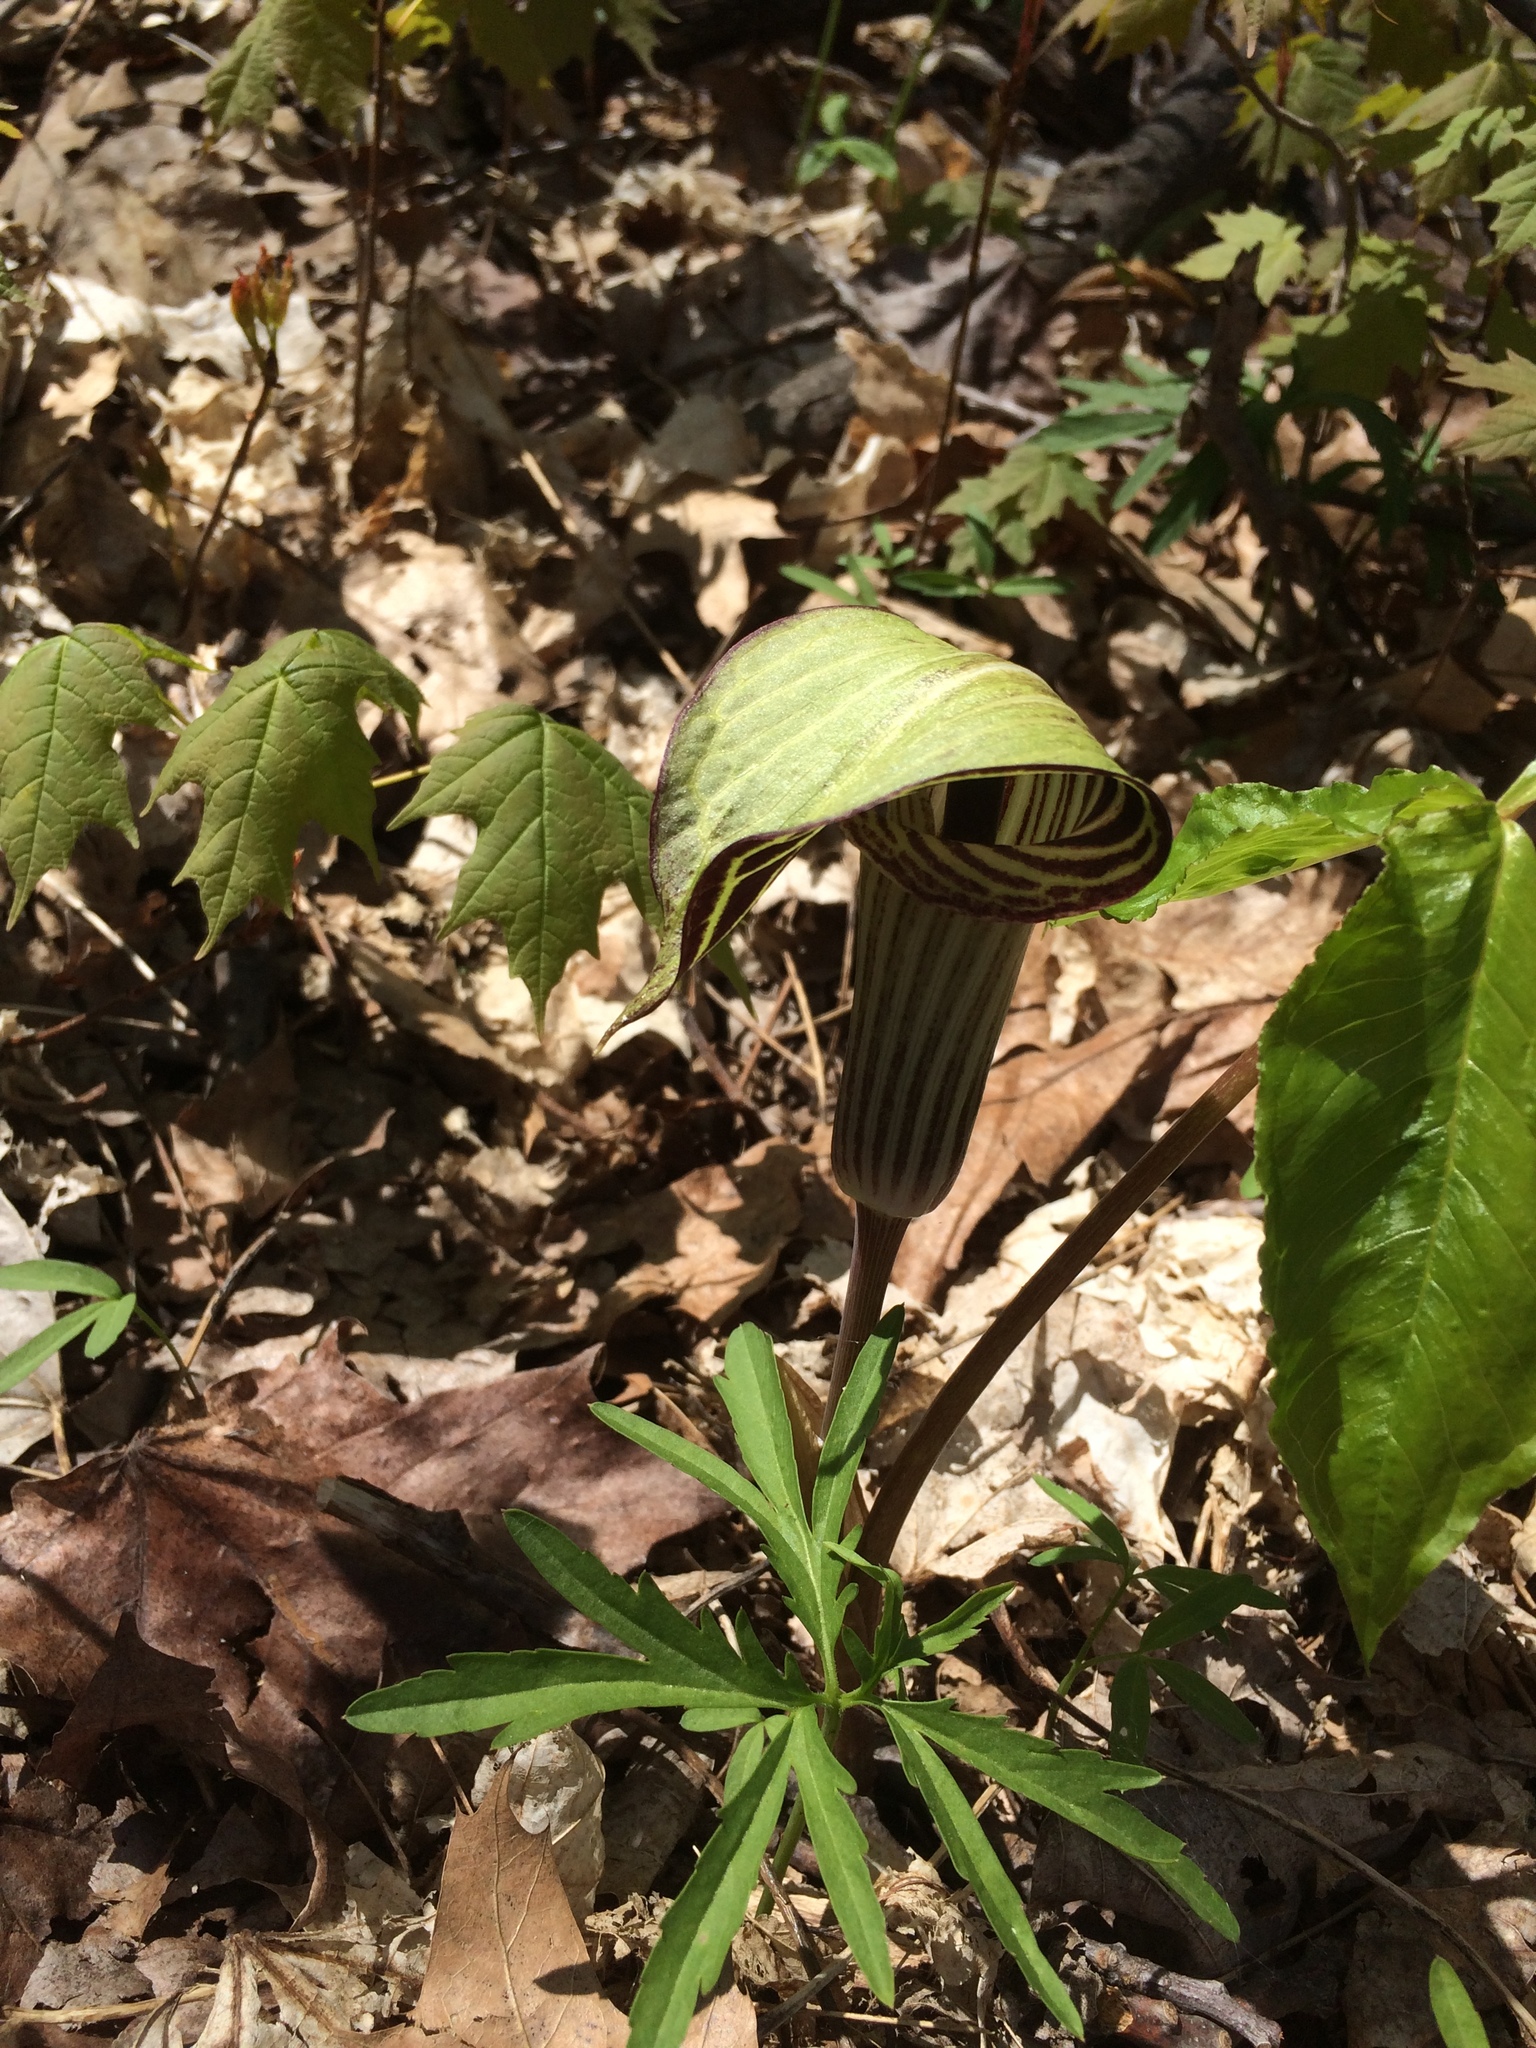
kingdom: Plantae
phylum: Tracheophyta
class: Liliopsida
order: Alismatales
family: Araceae
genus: Arisaema
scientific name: Arisaema triphyllum
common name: Jack-in-the-pulpit
